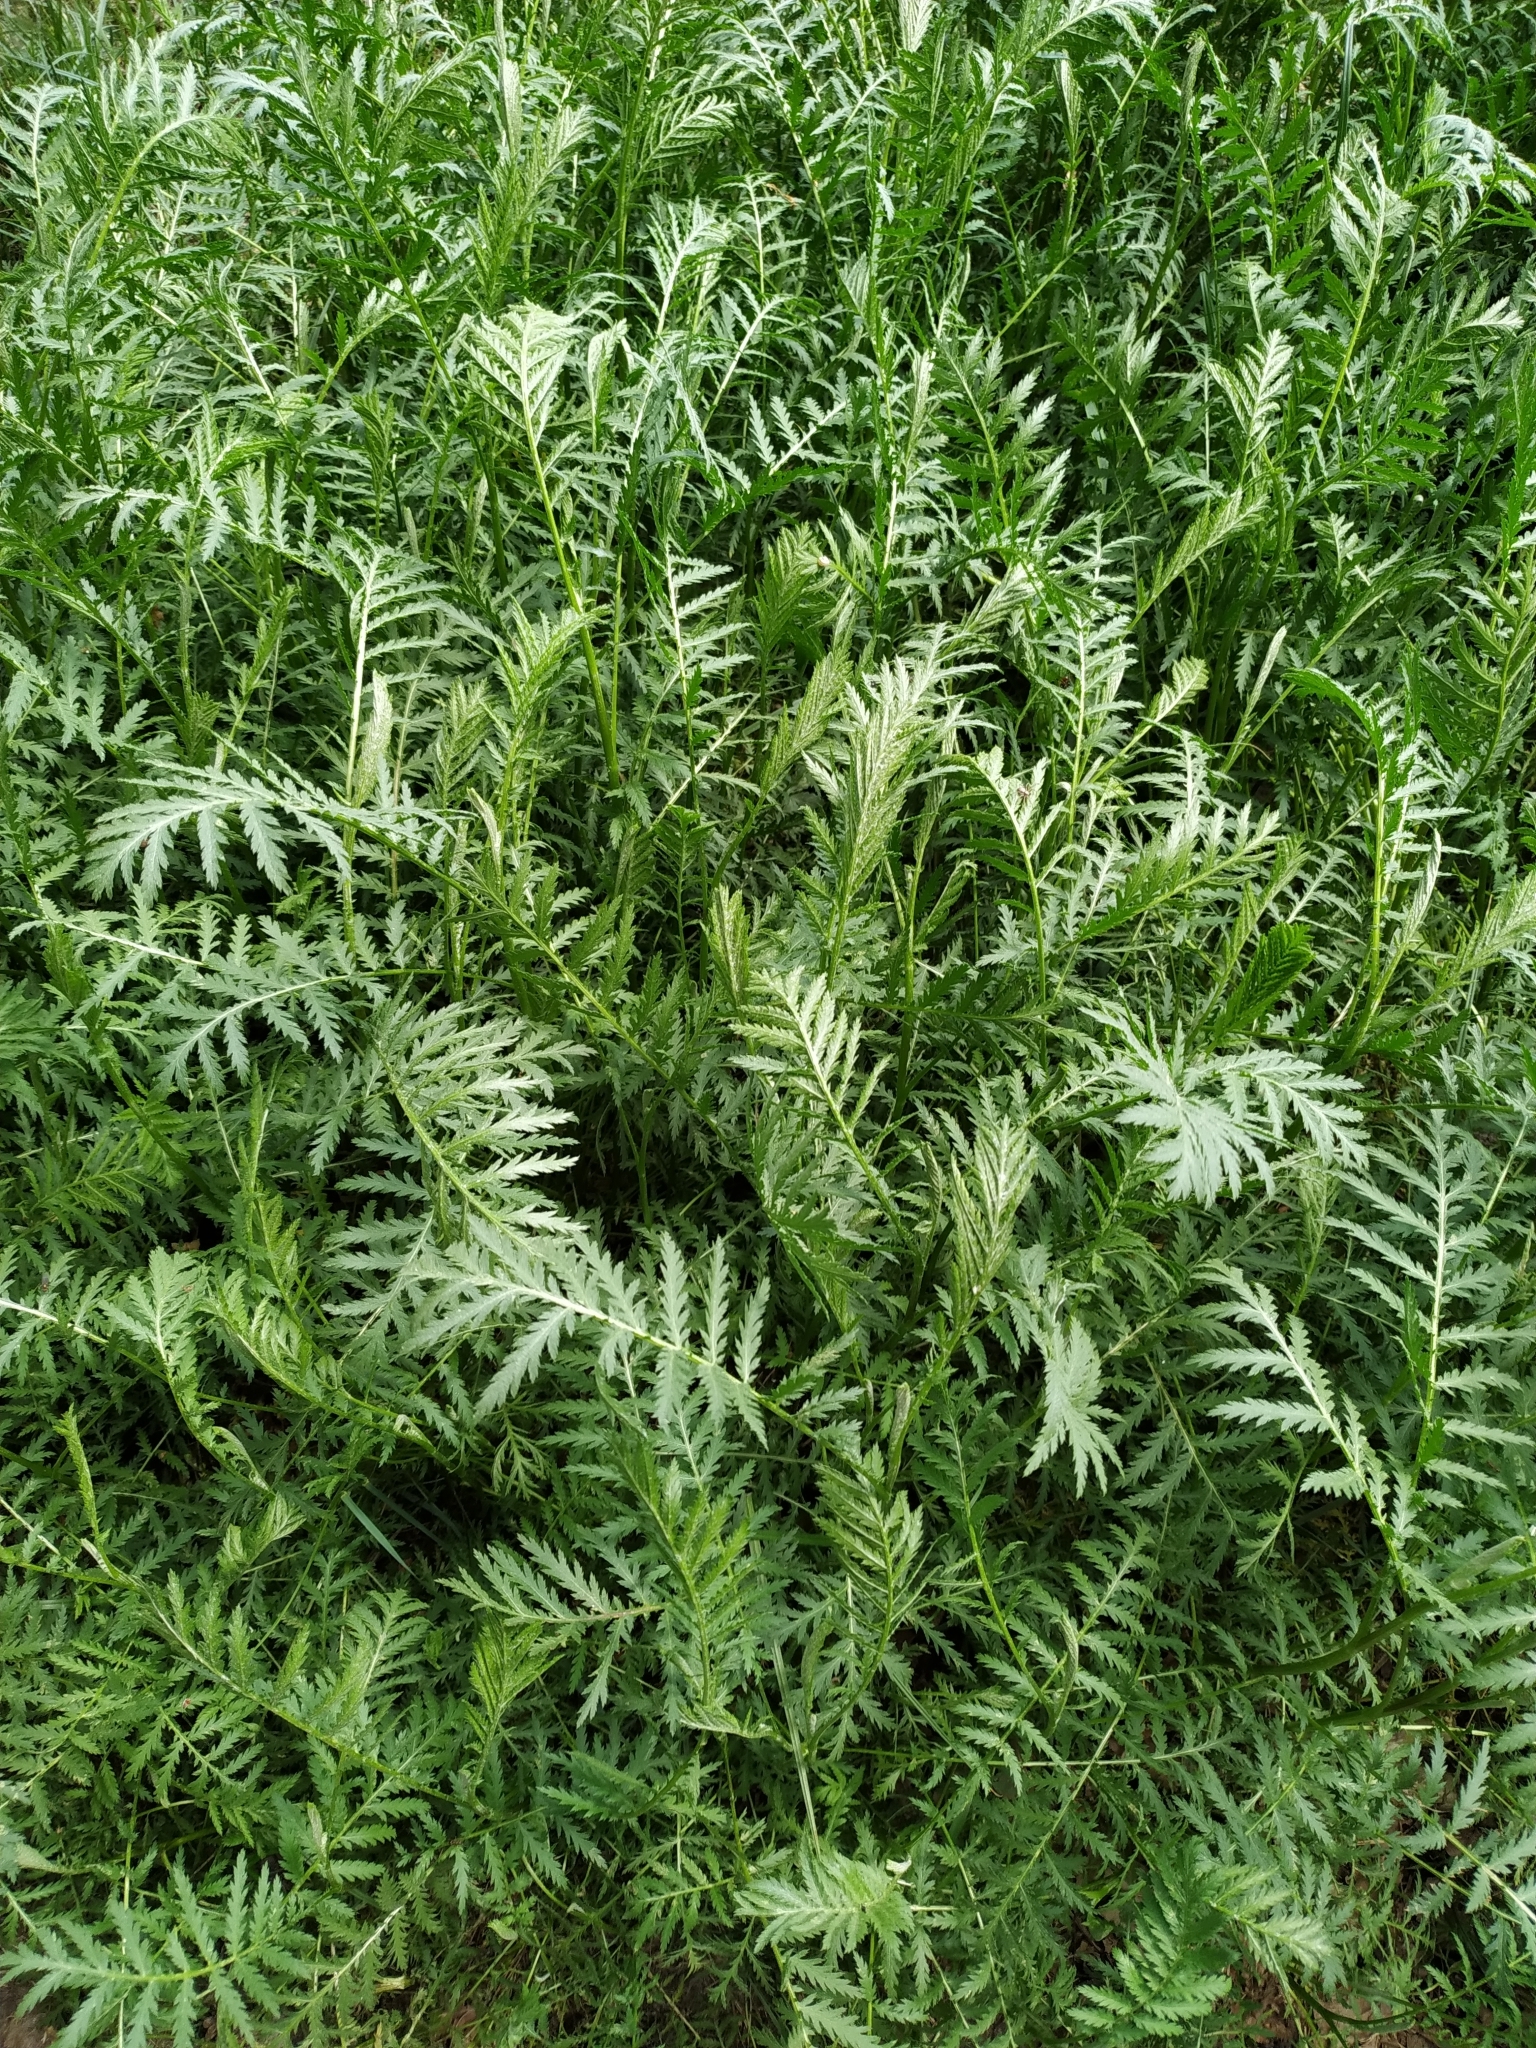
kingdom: Plantae
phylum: Tracheophyta
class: Magnoliopsida
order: Asterales
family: Asteraceae
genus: Tanacetum
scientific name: Tanacetum vulgare
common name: Common tansy
